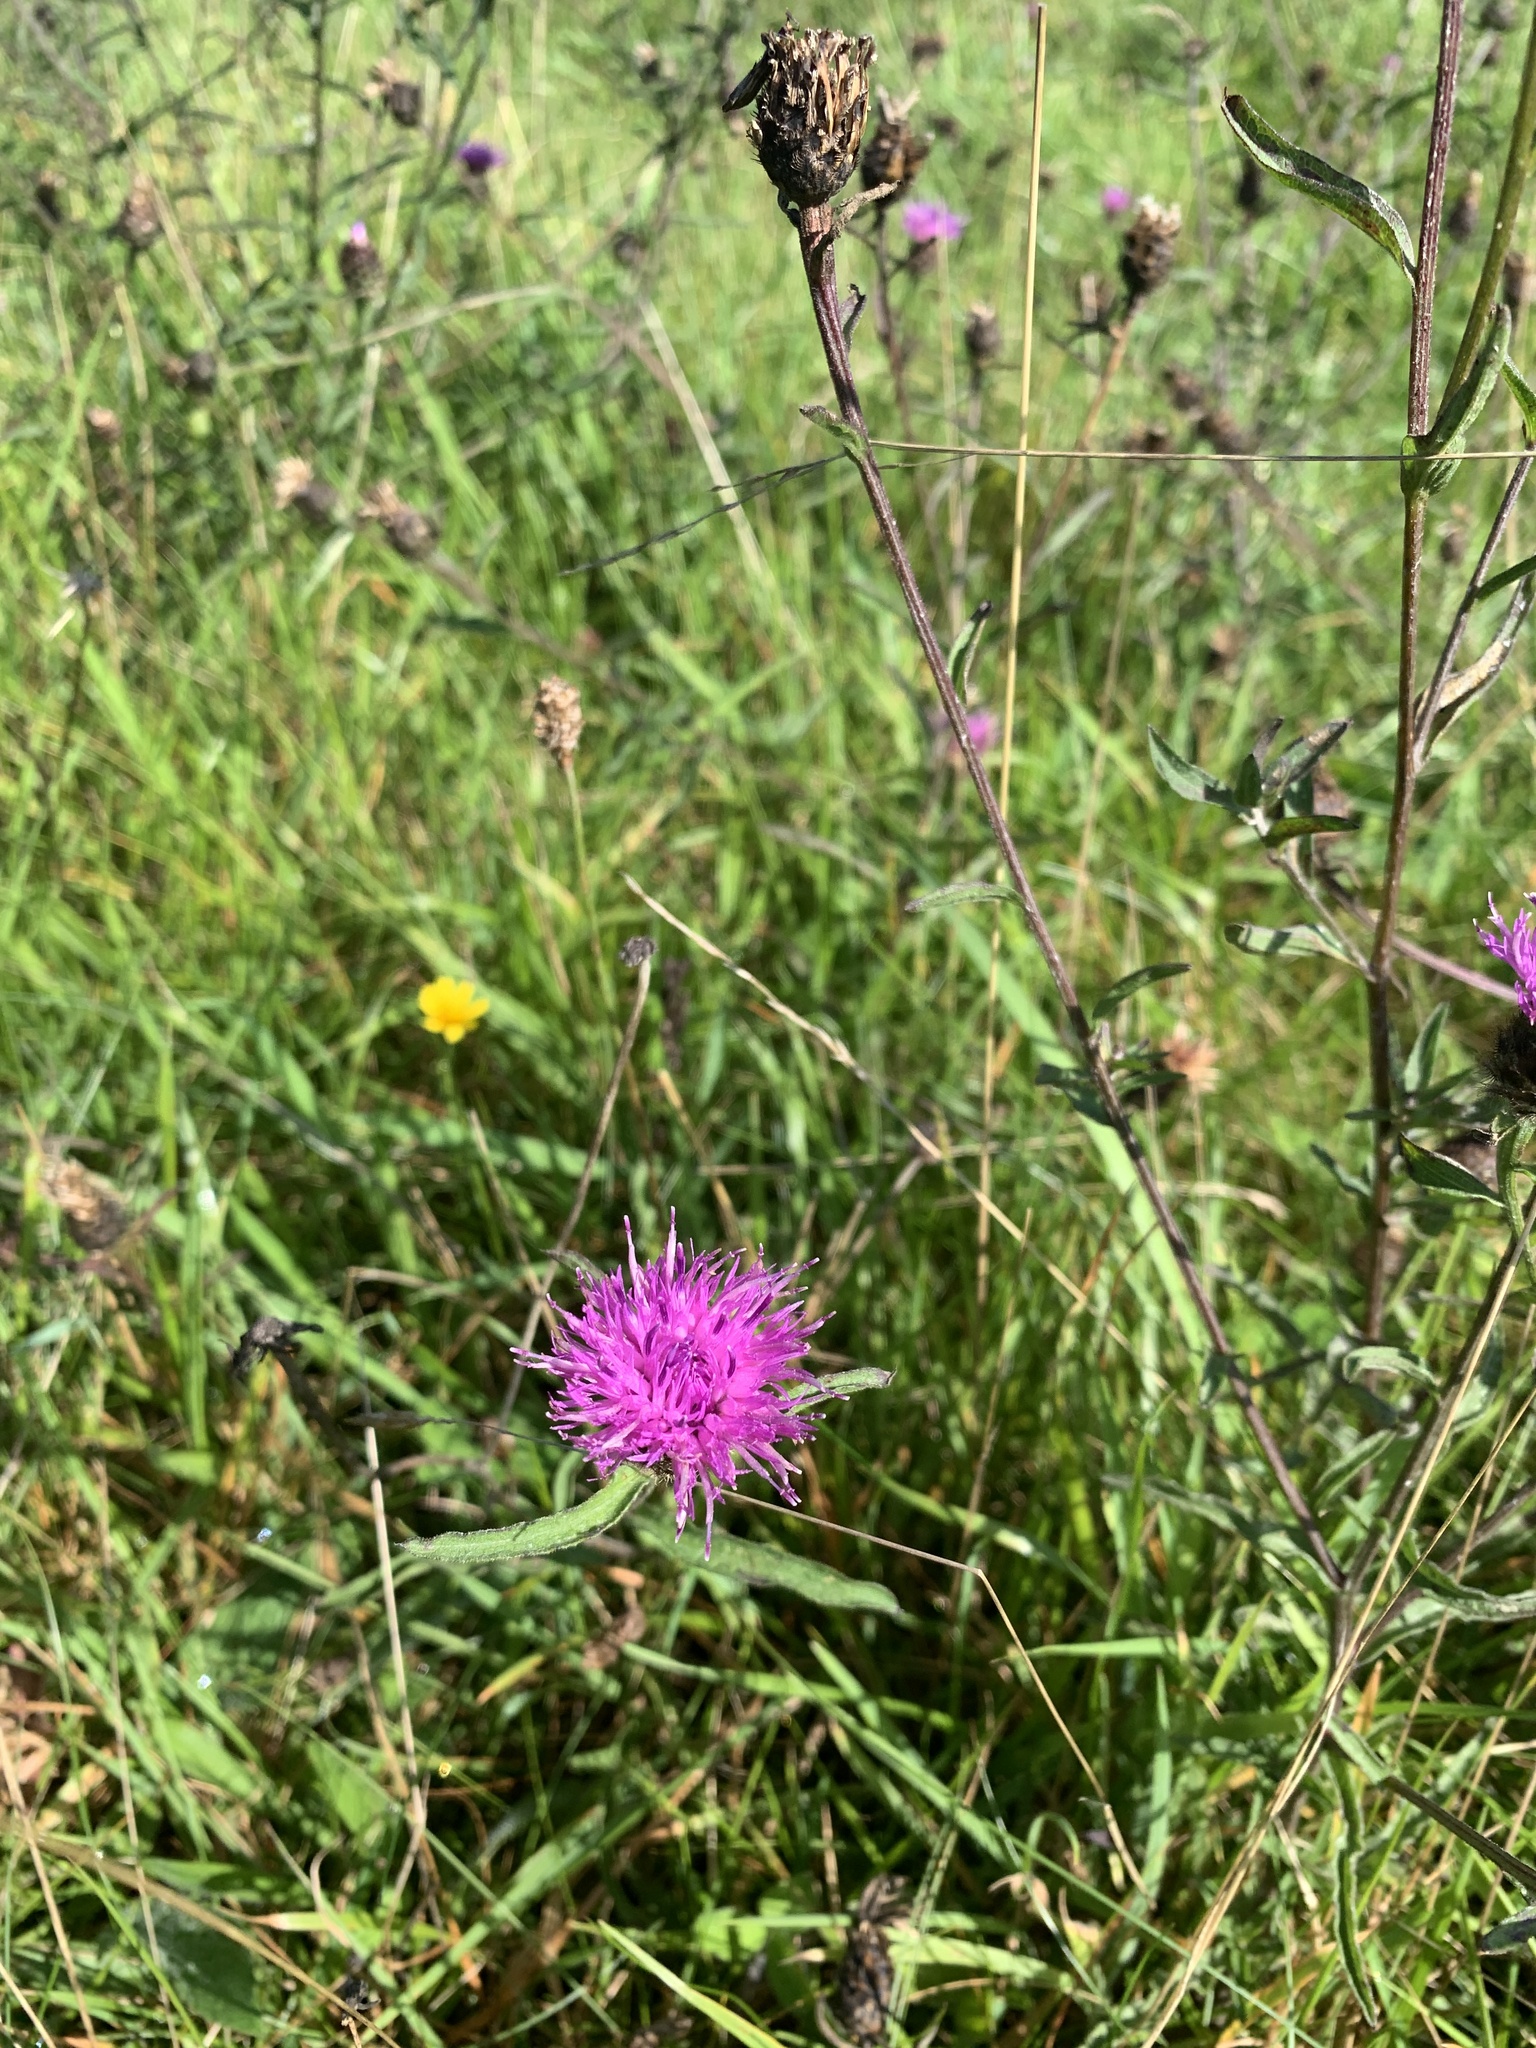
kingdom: Plantae
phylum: Tracheophyta
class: Magnoliopsida
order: Asterales
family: Asteraceae
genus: Centaurea
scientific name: Centaurea nigra
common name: Lesser knapweed
